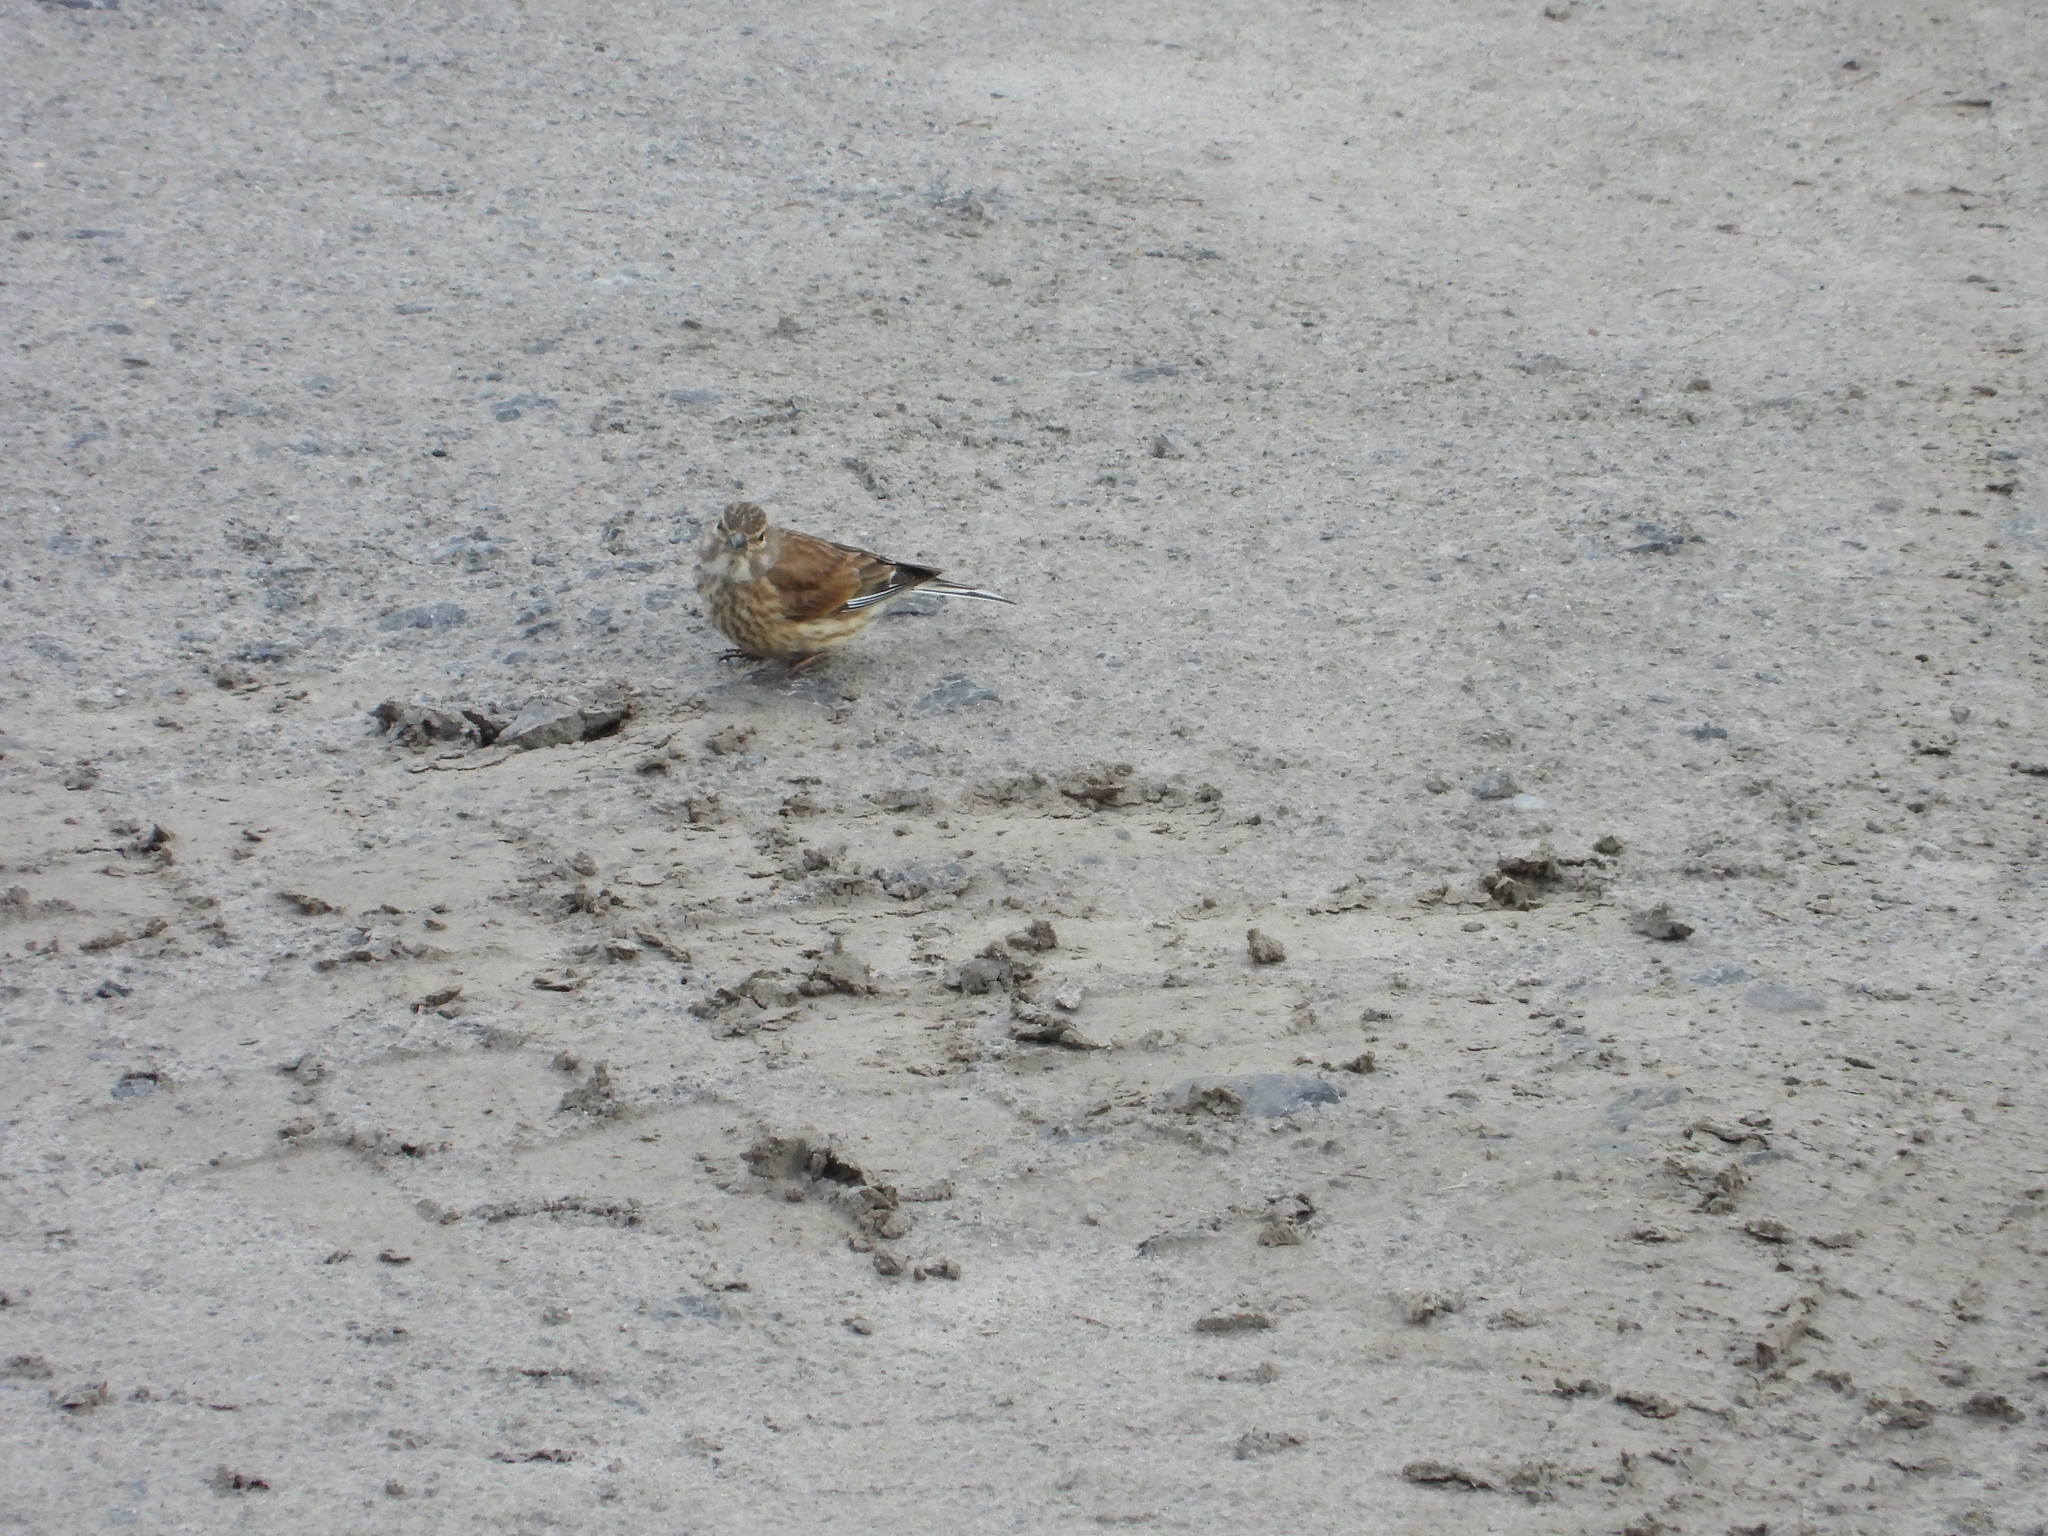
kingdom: Animalia
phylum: Chordata
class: Aves
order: Passeriformes
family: Fringillidae
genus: Linaria
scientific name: Linaria cannabina
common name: Common linnet
